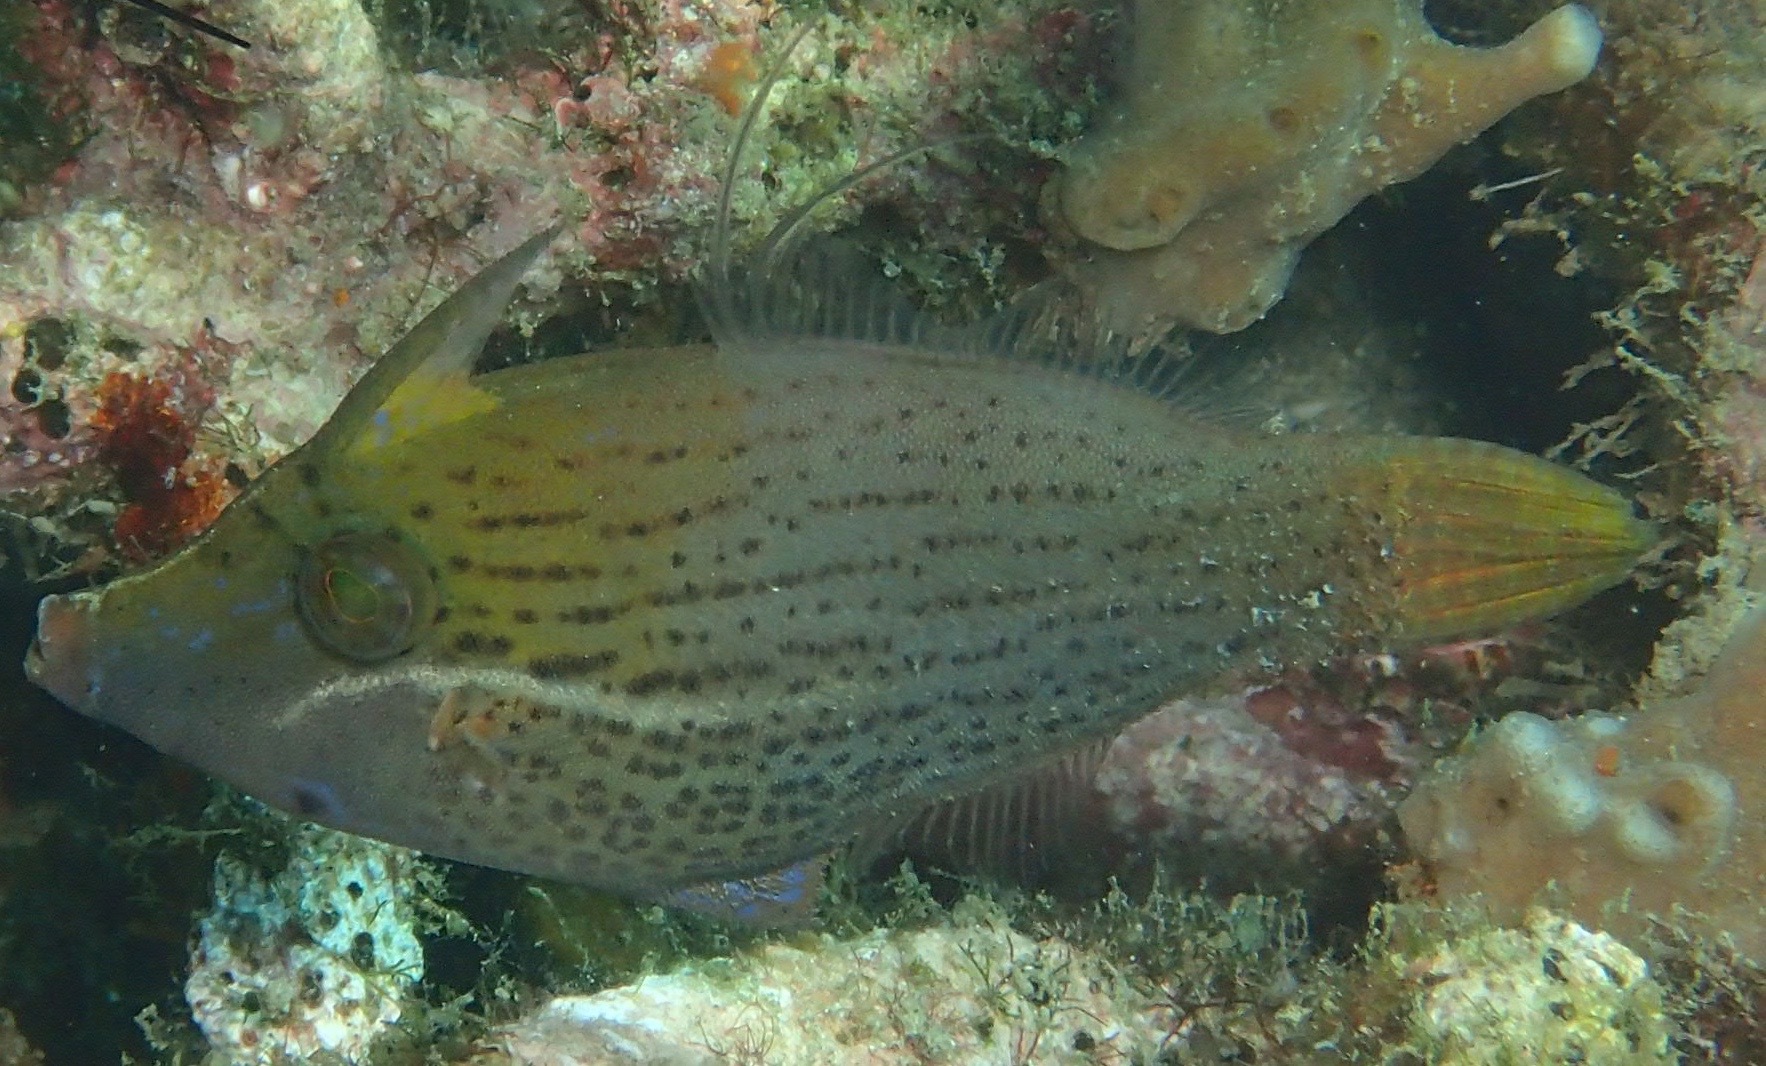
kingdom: Animalia
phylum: Chordata
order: Tetraodontiformes
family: Monacanthidae
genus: Pervagor
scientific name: Pervagor nigrolineatus
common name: Blacklined filefish
